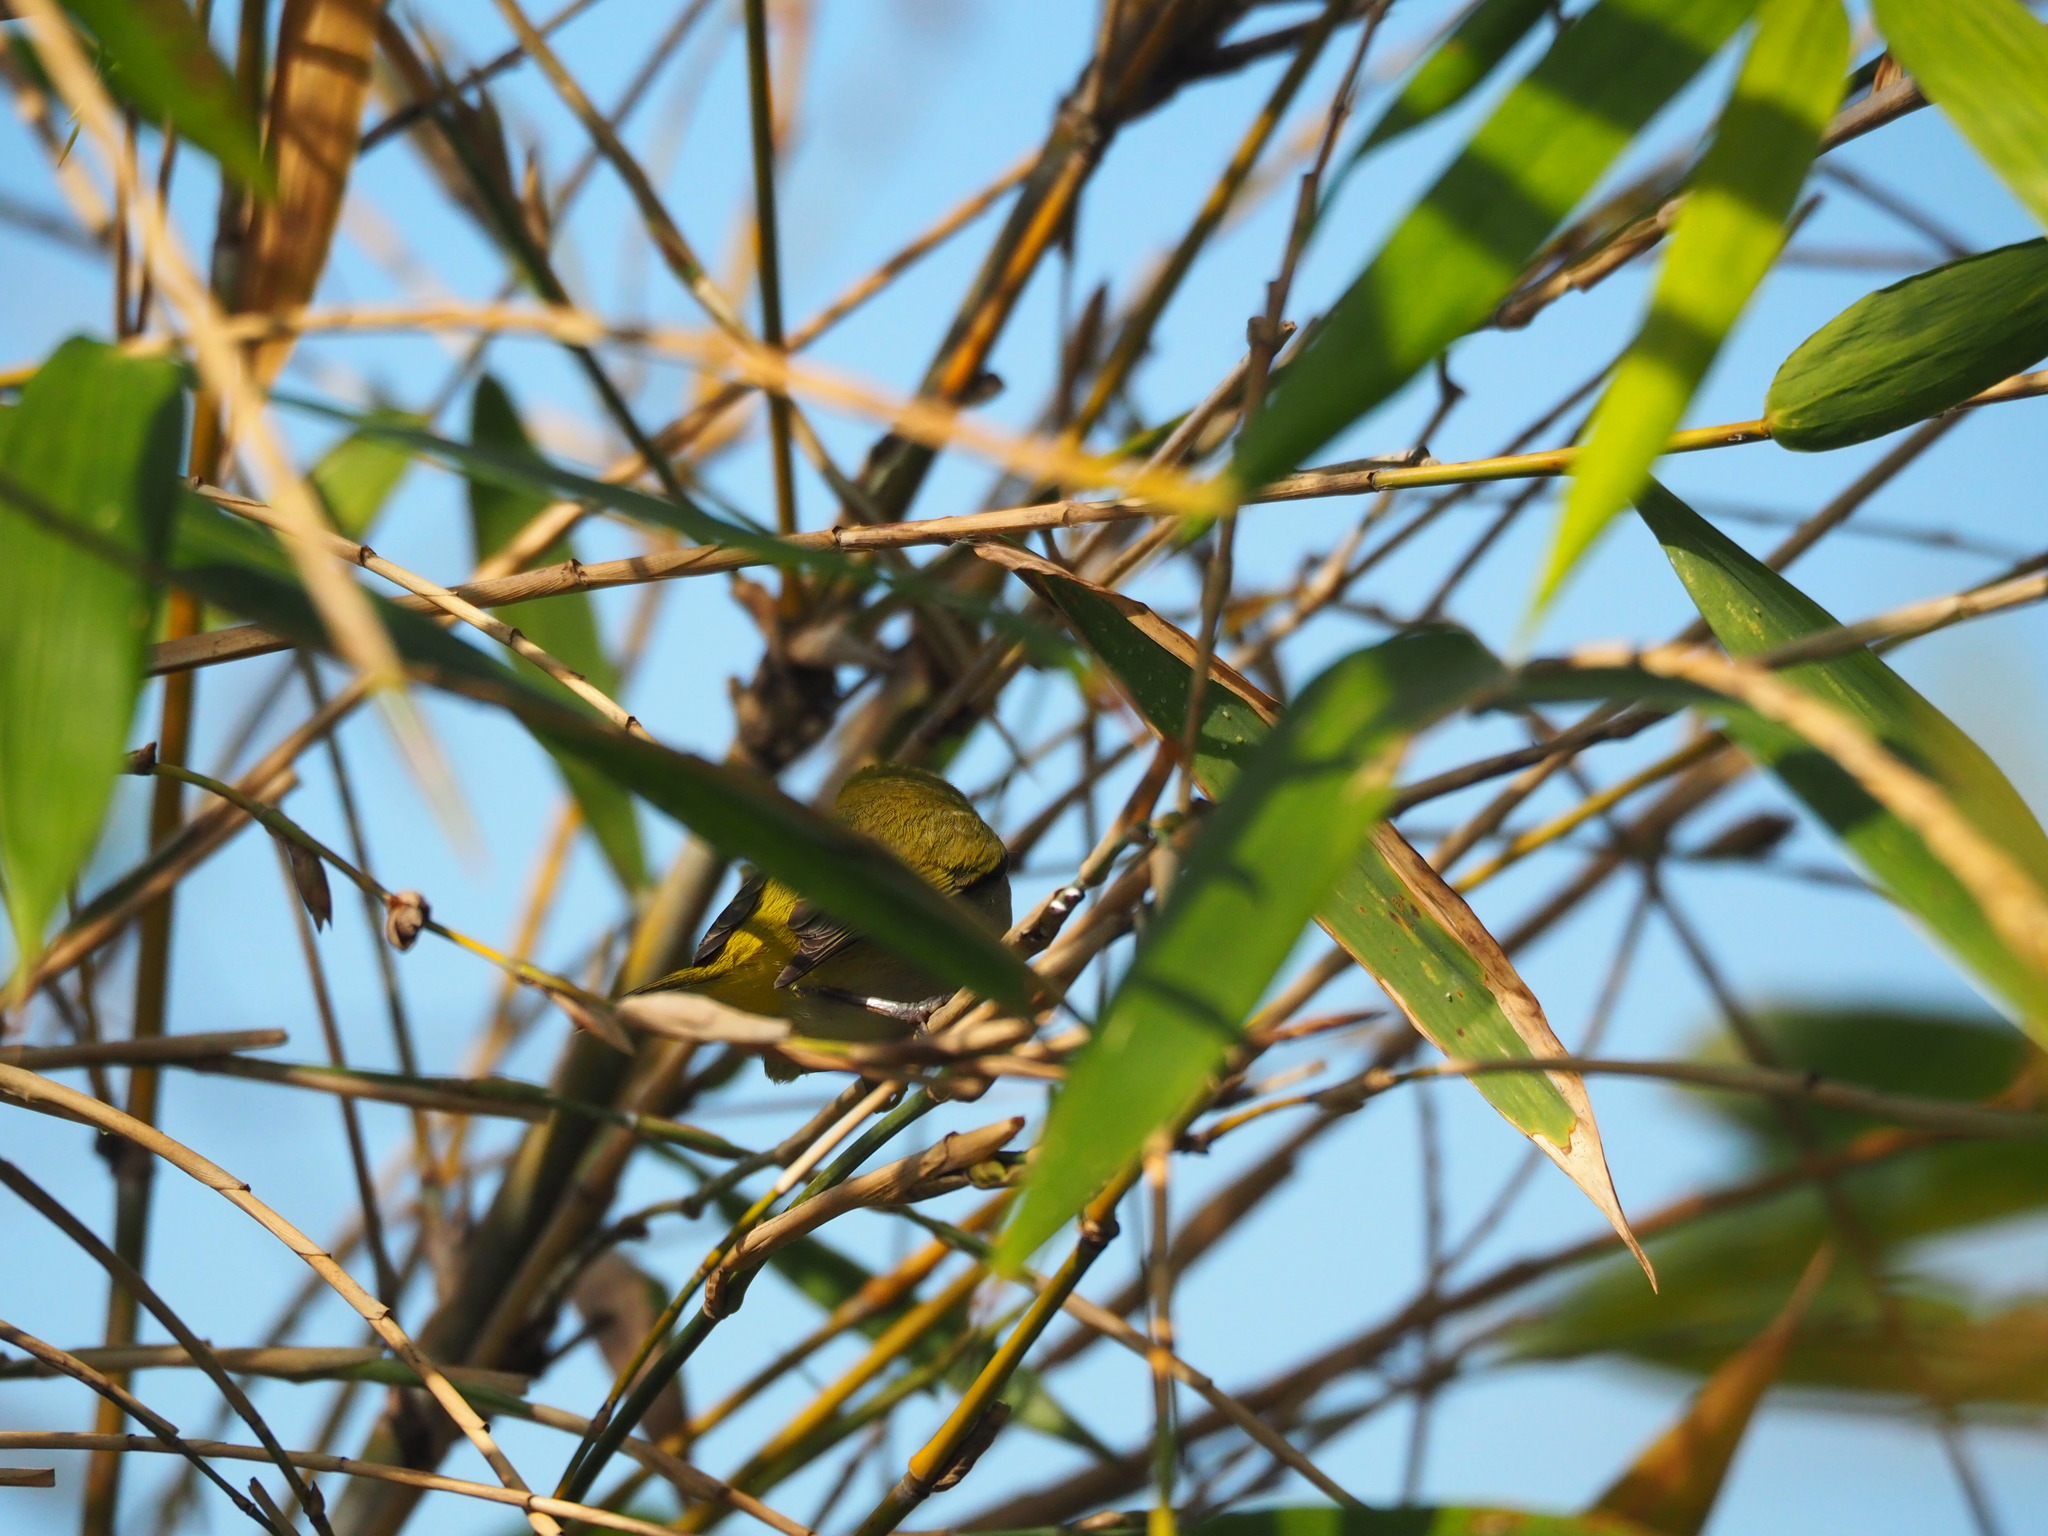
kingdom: Animalia
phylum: Chordata
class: Aves
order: Passeriformes
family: Zosteropidae
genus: Zosterops
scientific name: Zosterops simplex
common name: Swinhoe's white-eye
